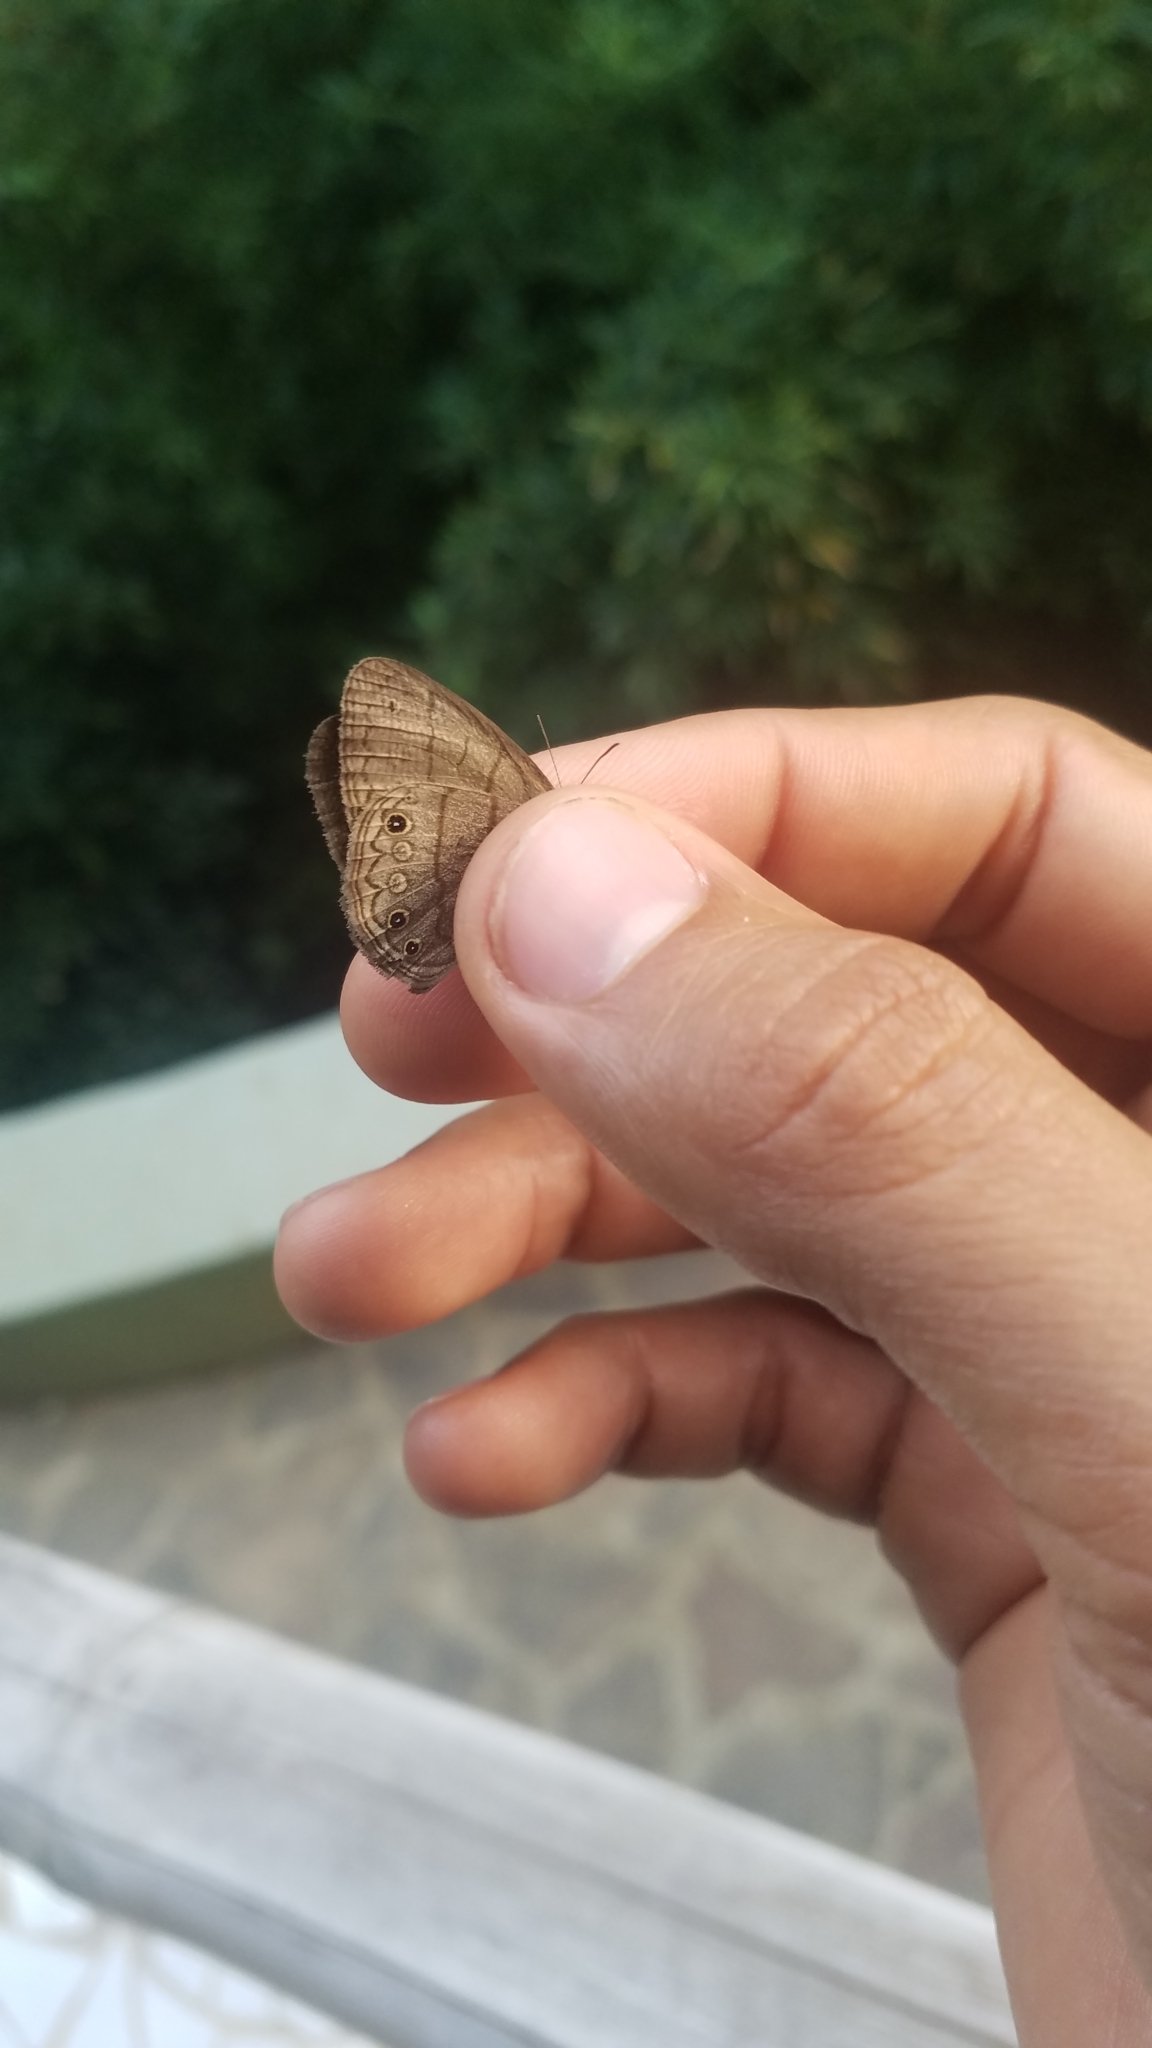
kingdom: Animalia
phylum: Arthropoda
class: Insecta
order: Lepidoptera
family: Nymphalidae
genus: Hermeuptychia
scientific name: Hermeuptychia hermes
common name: Hermes satyr
